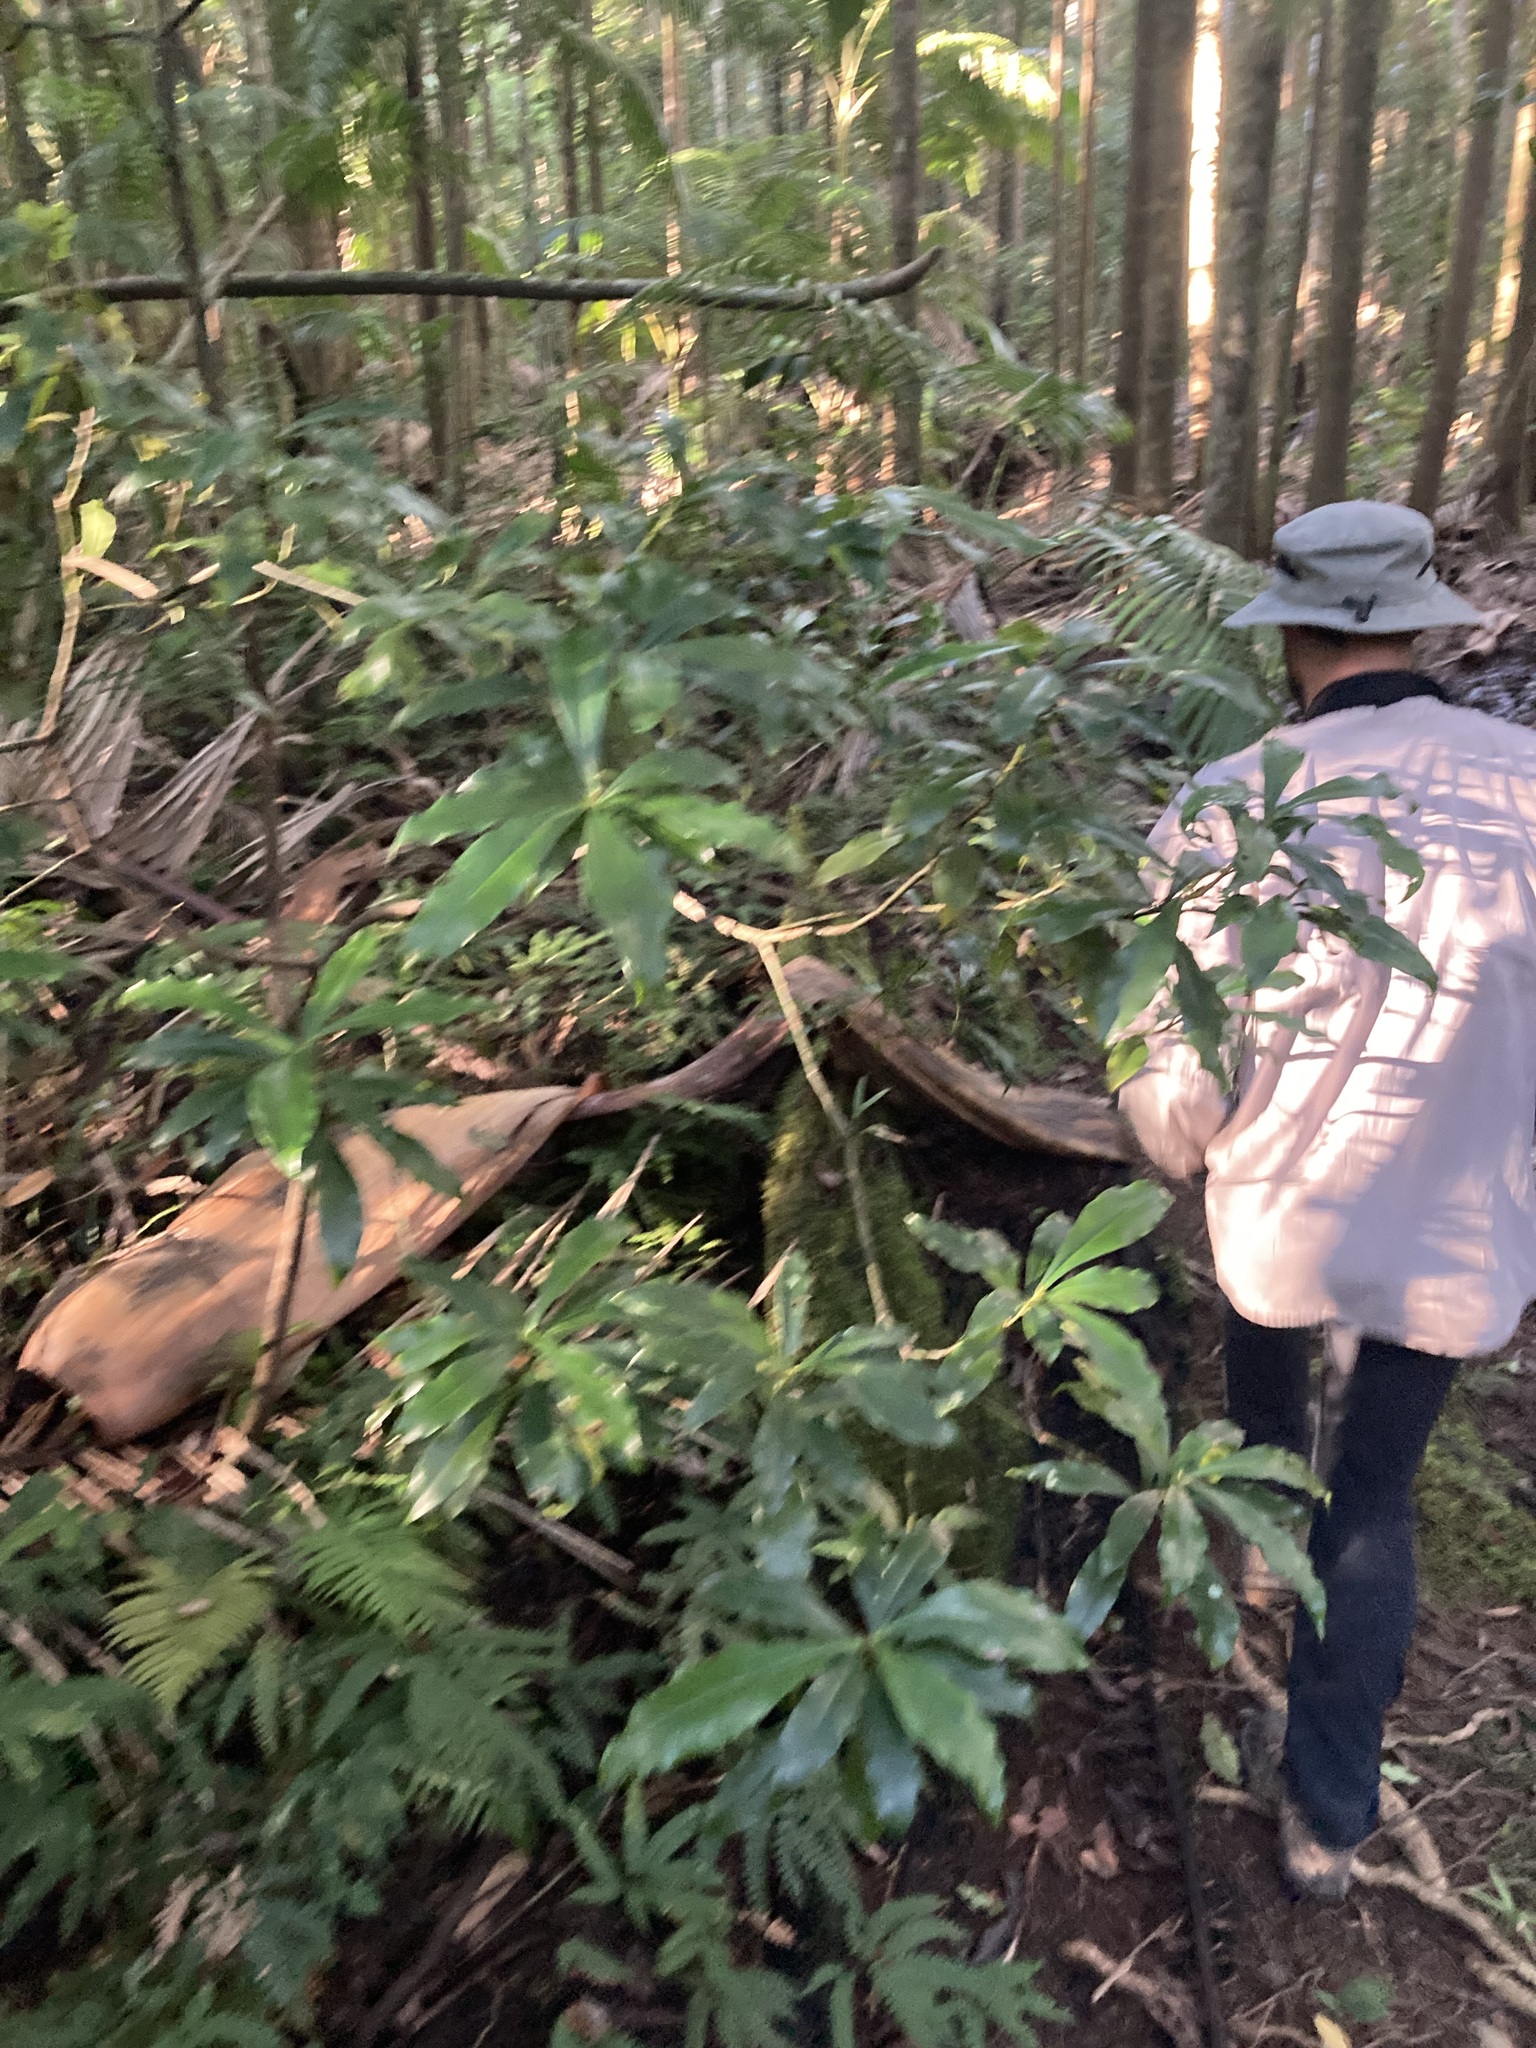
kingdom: Plantae
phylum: Tracheophyta
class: Magnoliopsida
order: Canellales
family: Winteraceae
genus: Drimys
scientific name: Drimys insipida
